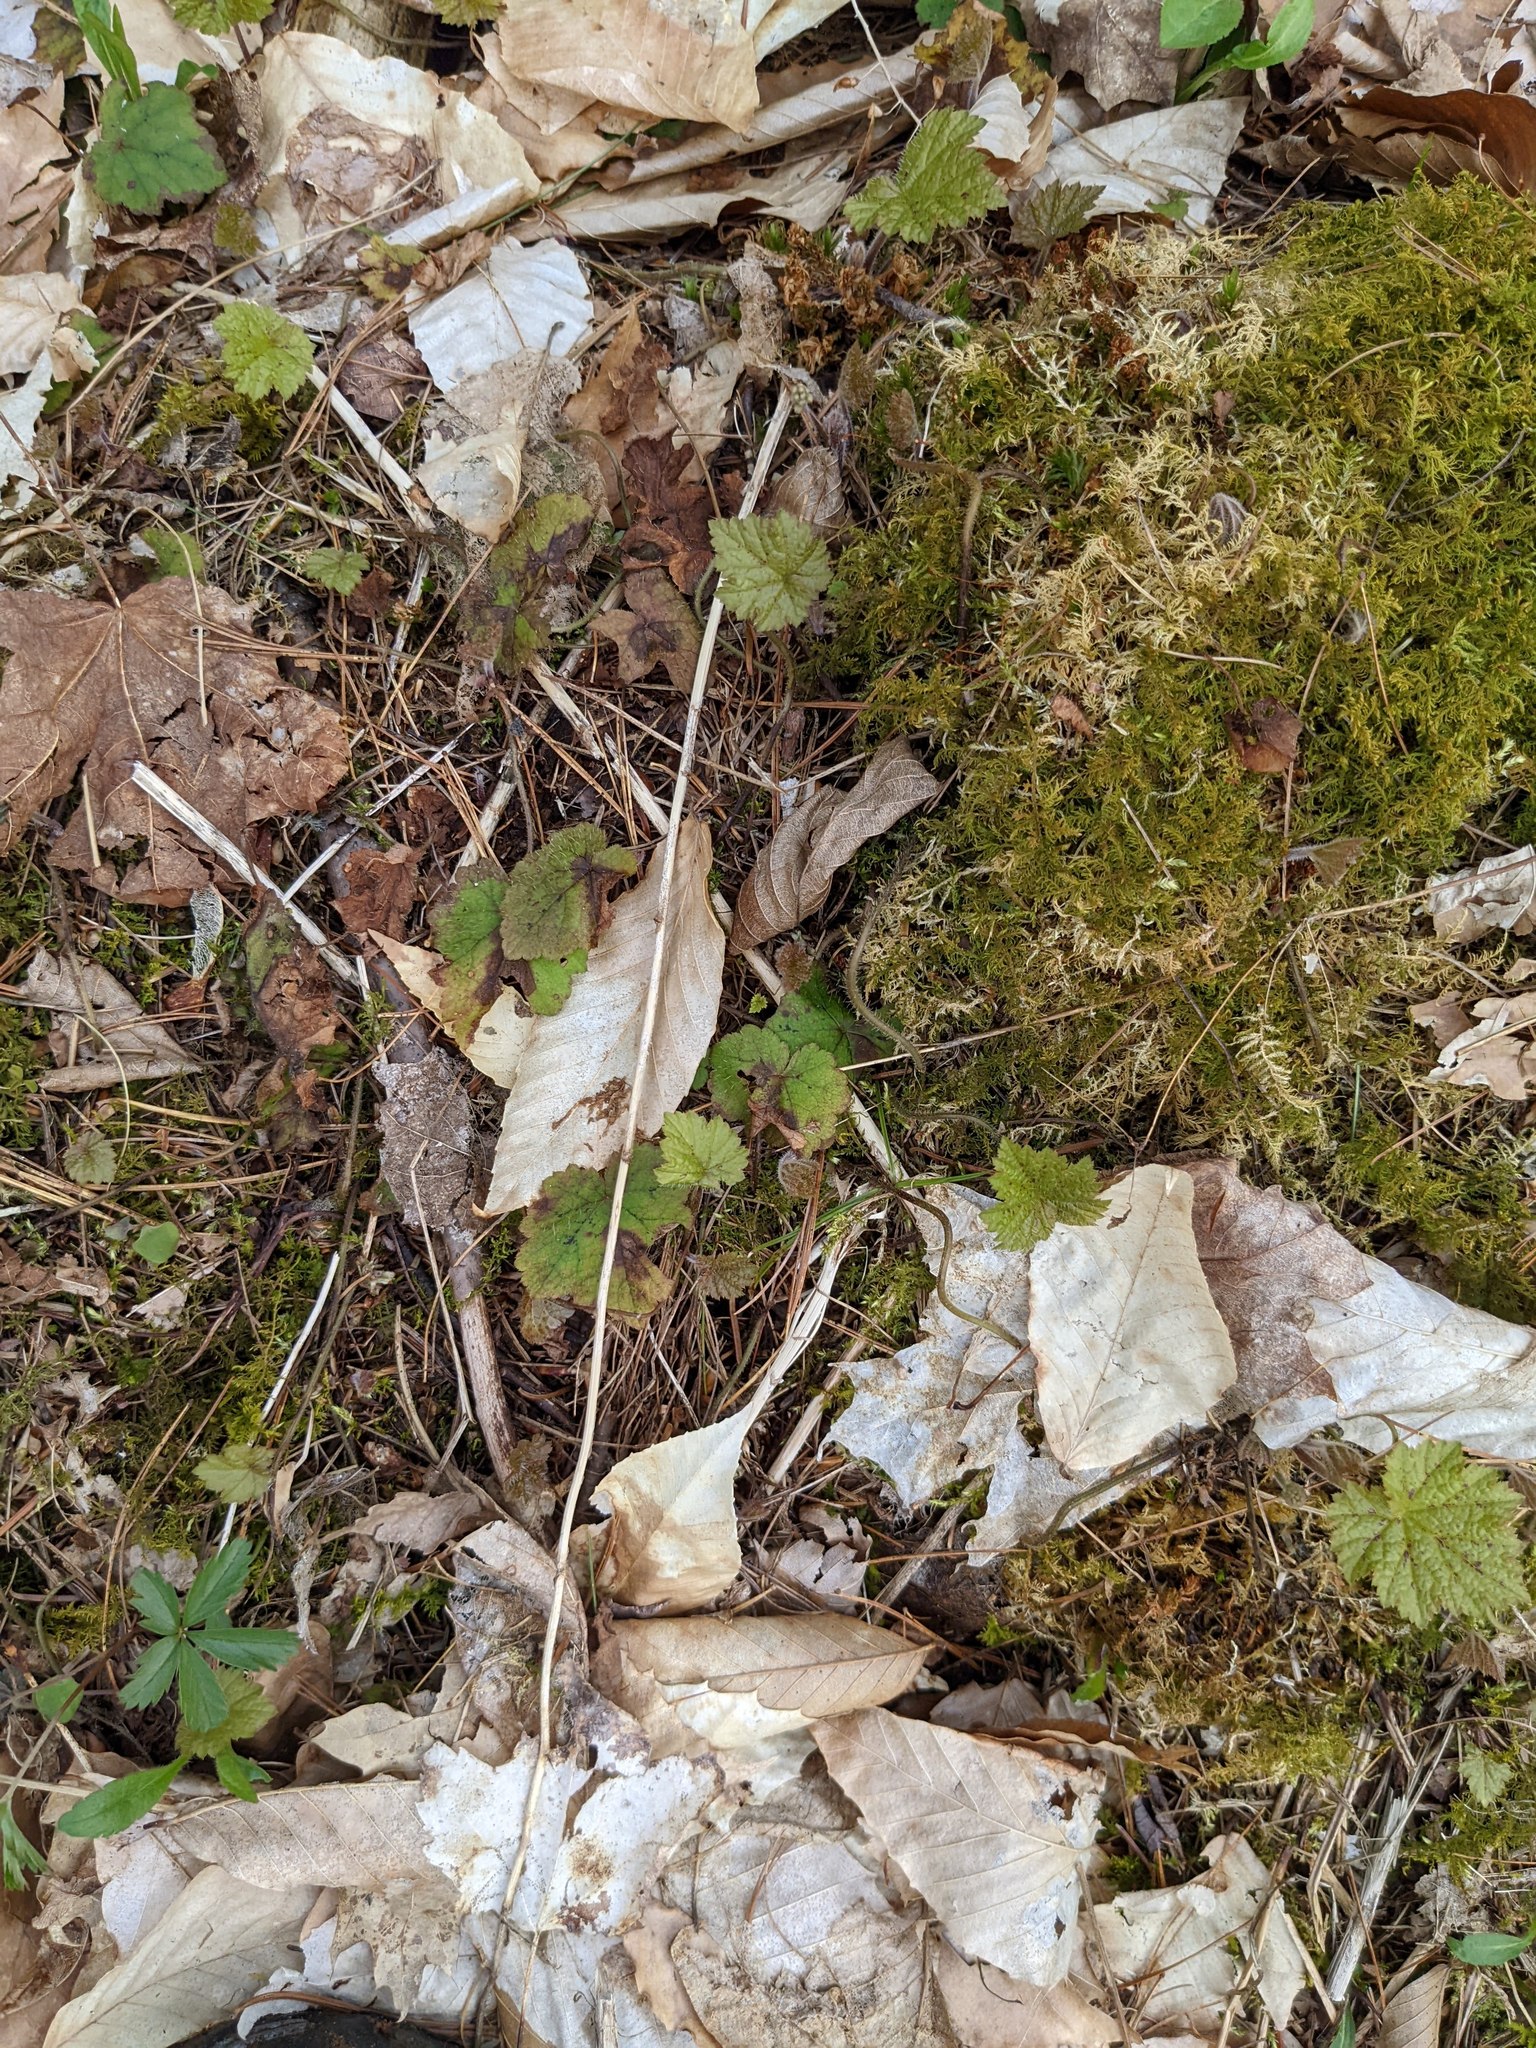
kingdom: Plantae
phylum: Tracheophyta
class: Magnoliopsida
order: Saxifragales
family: Saxifragaceae
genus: Tiarella
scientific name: Tiarella stolonifera
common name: Stoloniferous foamflower
